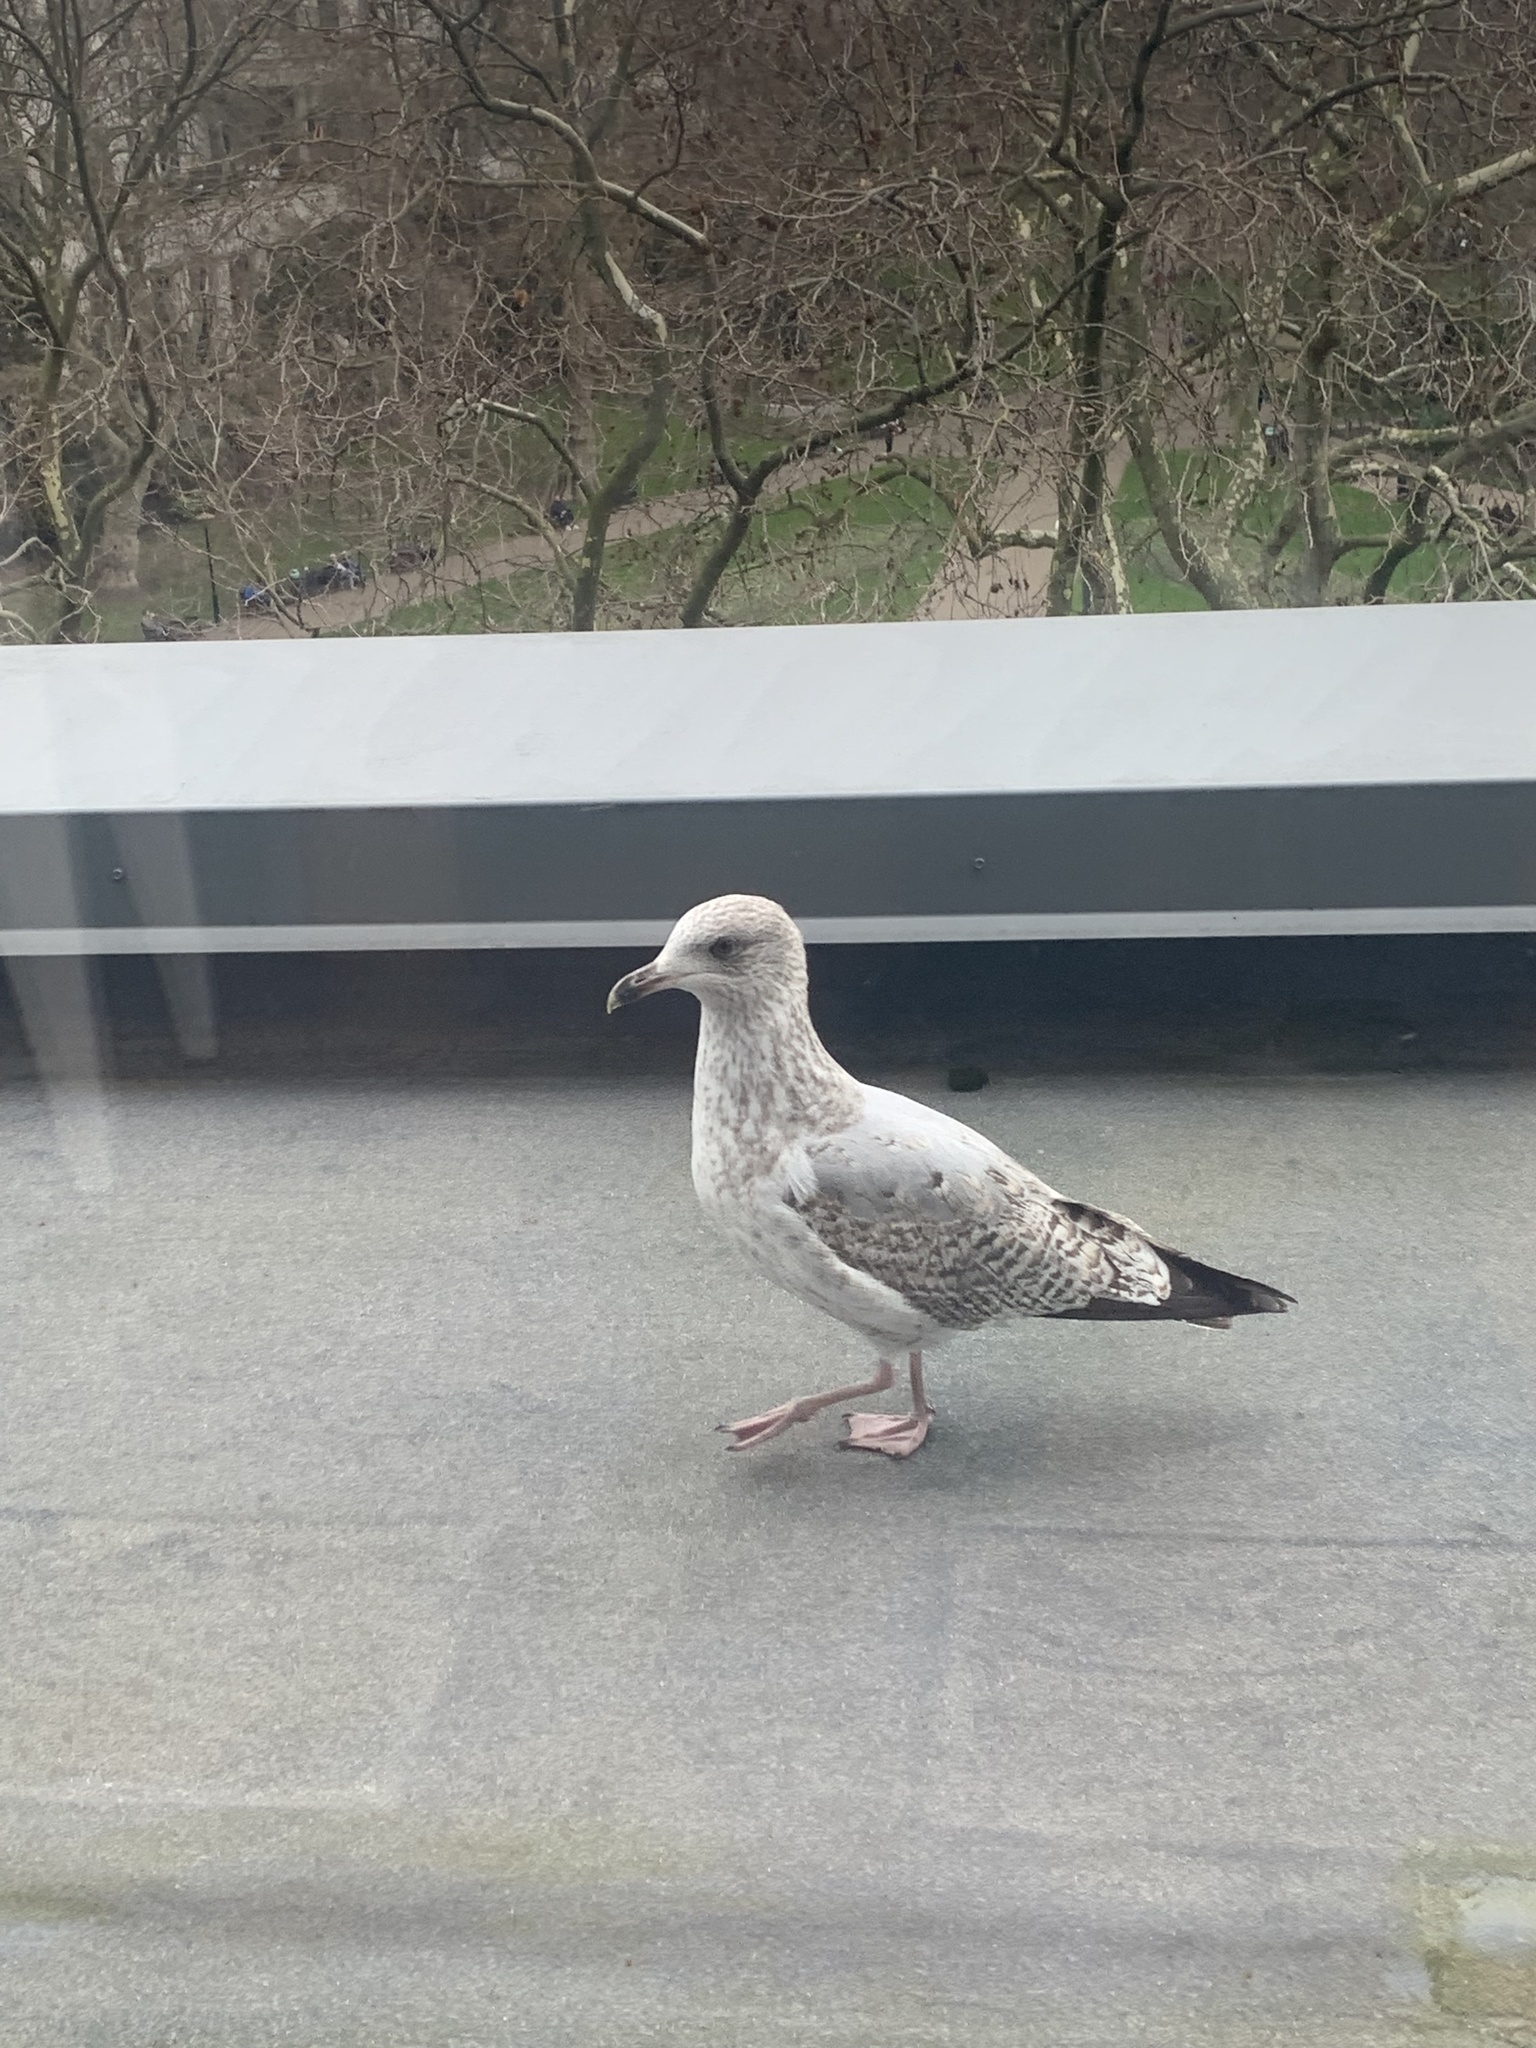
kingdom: Animalia
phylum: Chordata
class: Aves
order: Charadriiformes
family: Laridae
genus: Larus
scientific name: Larus argentatus
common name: Herring gull
